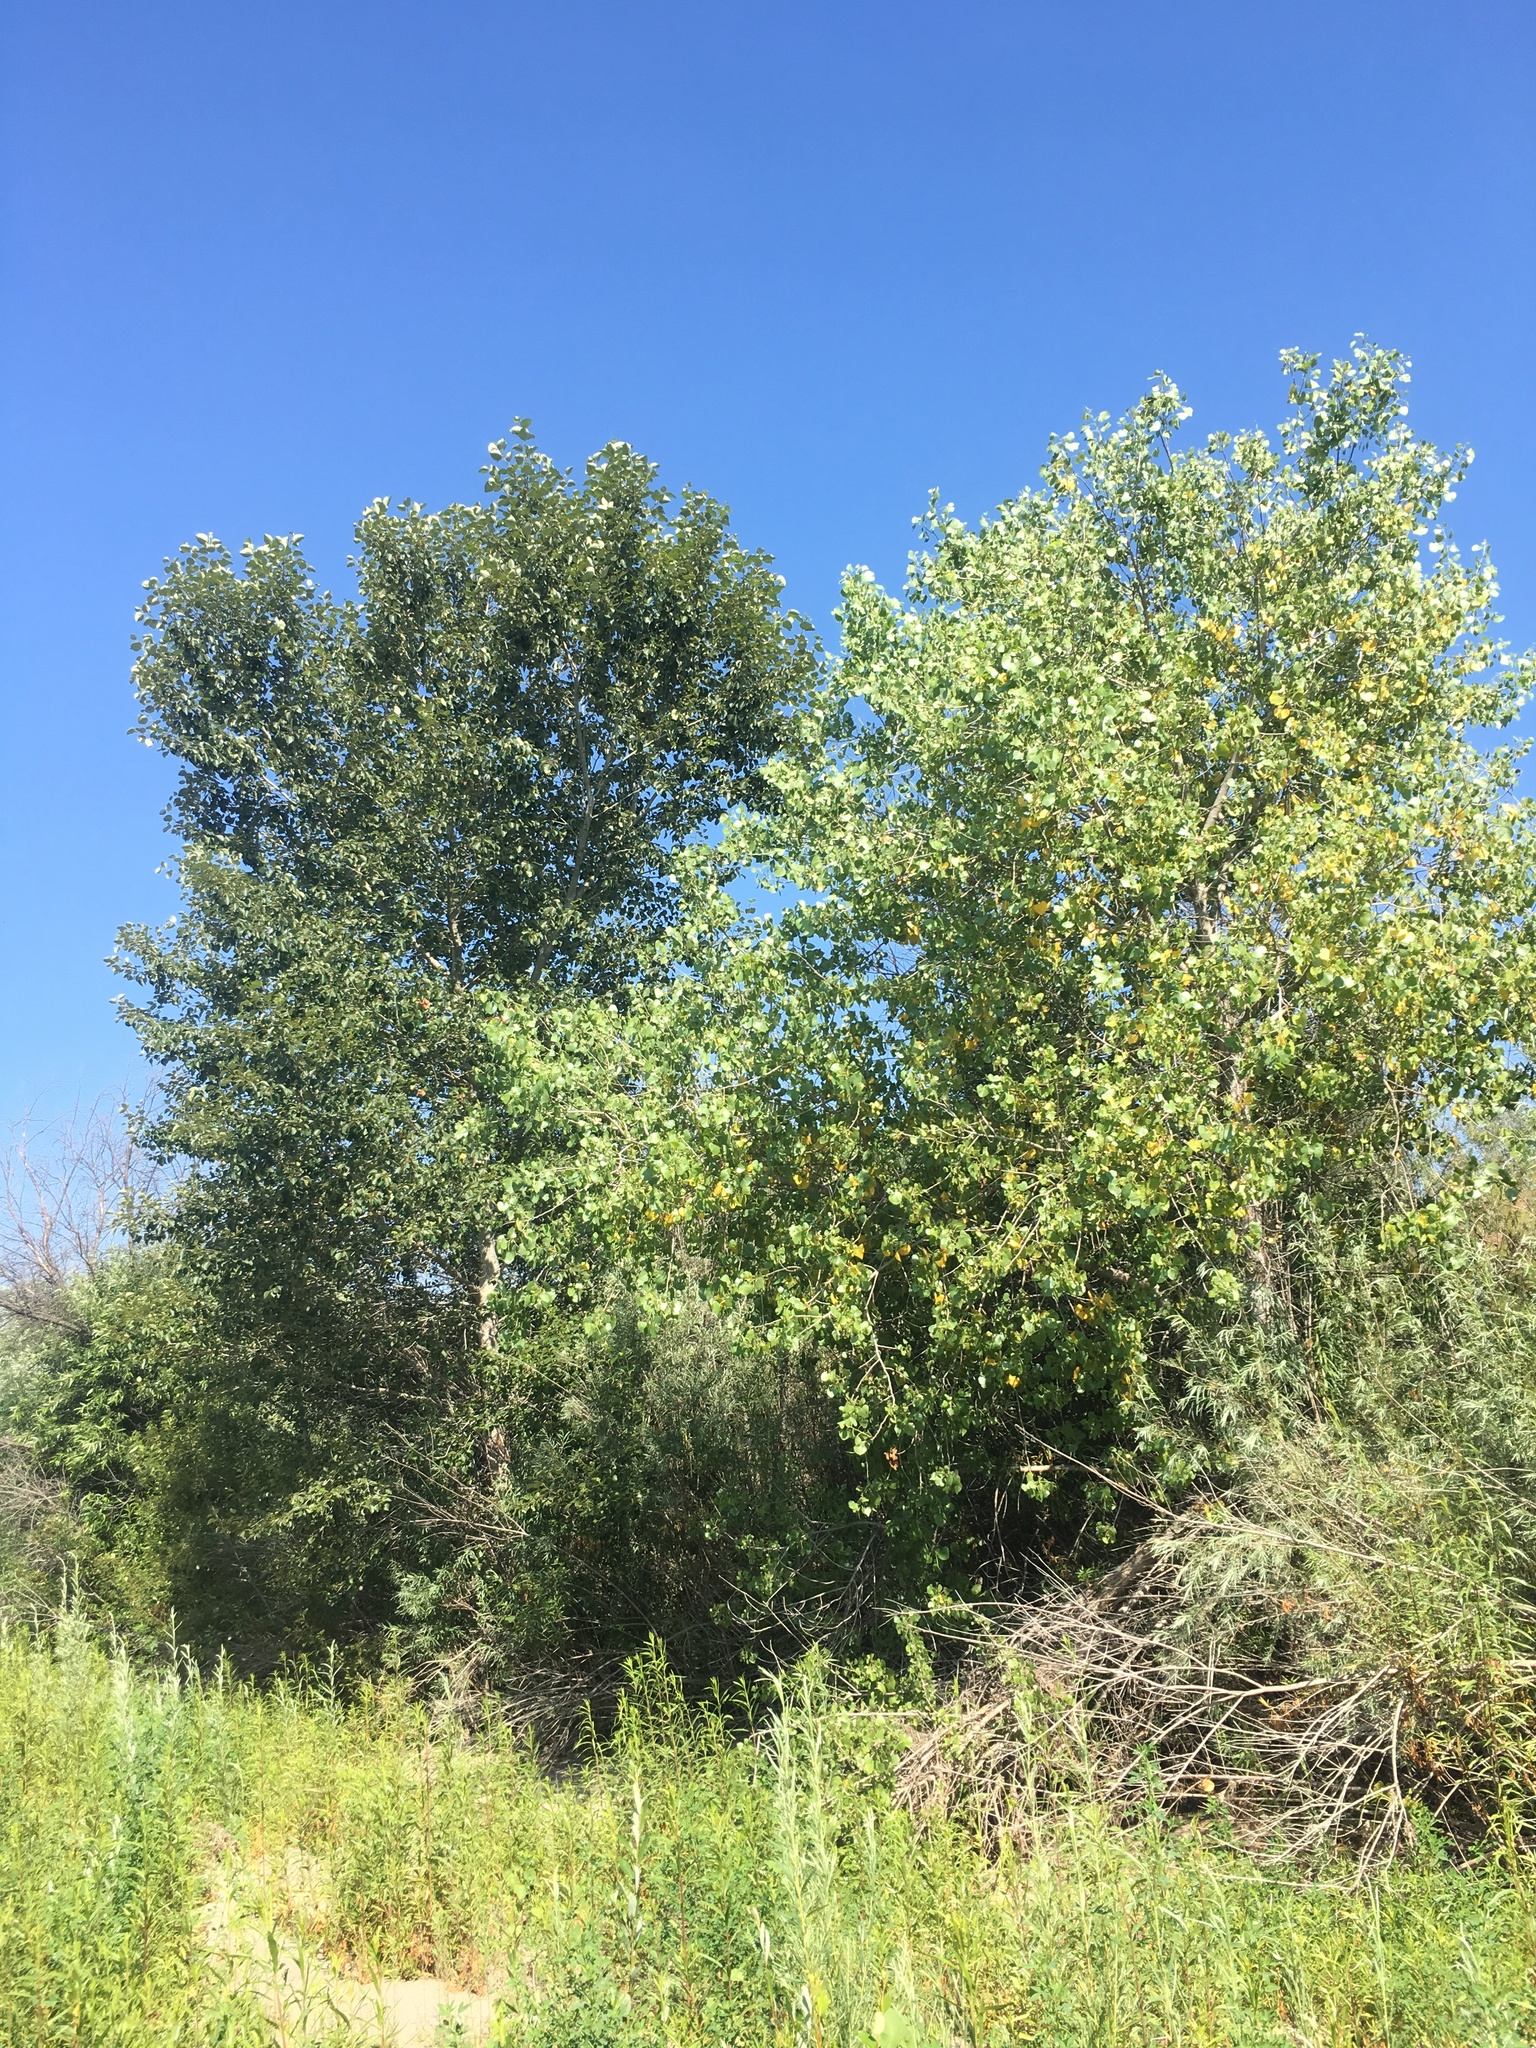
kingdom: Plantae
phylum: Tracheophyta
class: Magnoliopsida
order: Malpighiales
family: Salicaceae
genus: Populus
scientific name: Populus fremontii
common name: Fremont's cottonwood
